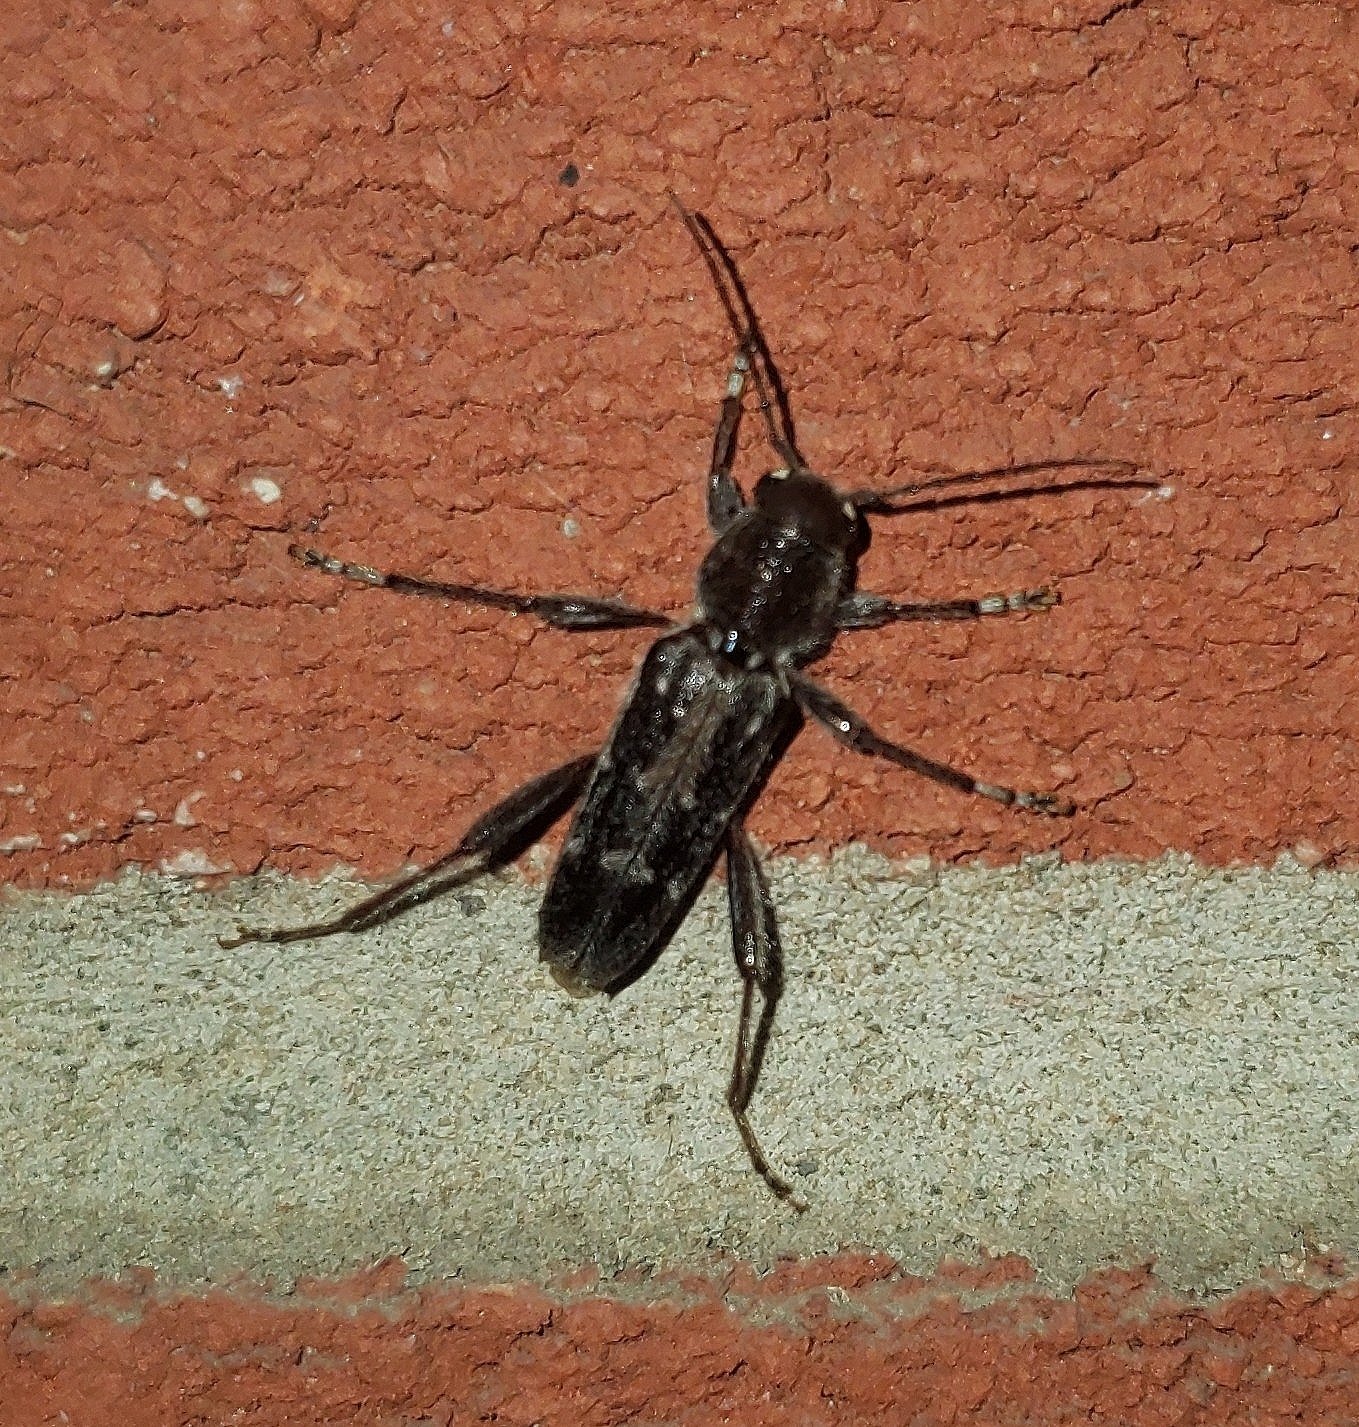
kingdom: Animalia
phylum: Arthropoda
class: Insecta
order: Coleoptera
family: Cerambycidae
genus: Xylotrechus
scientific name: Xylotrechus sagittatus
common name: Arrowhead borer
